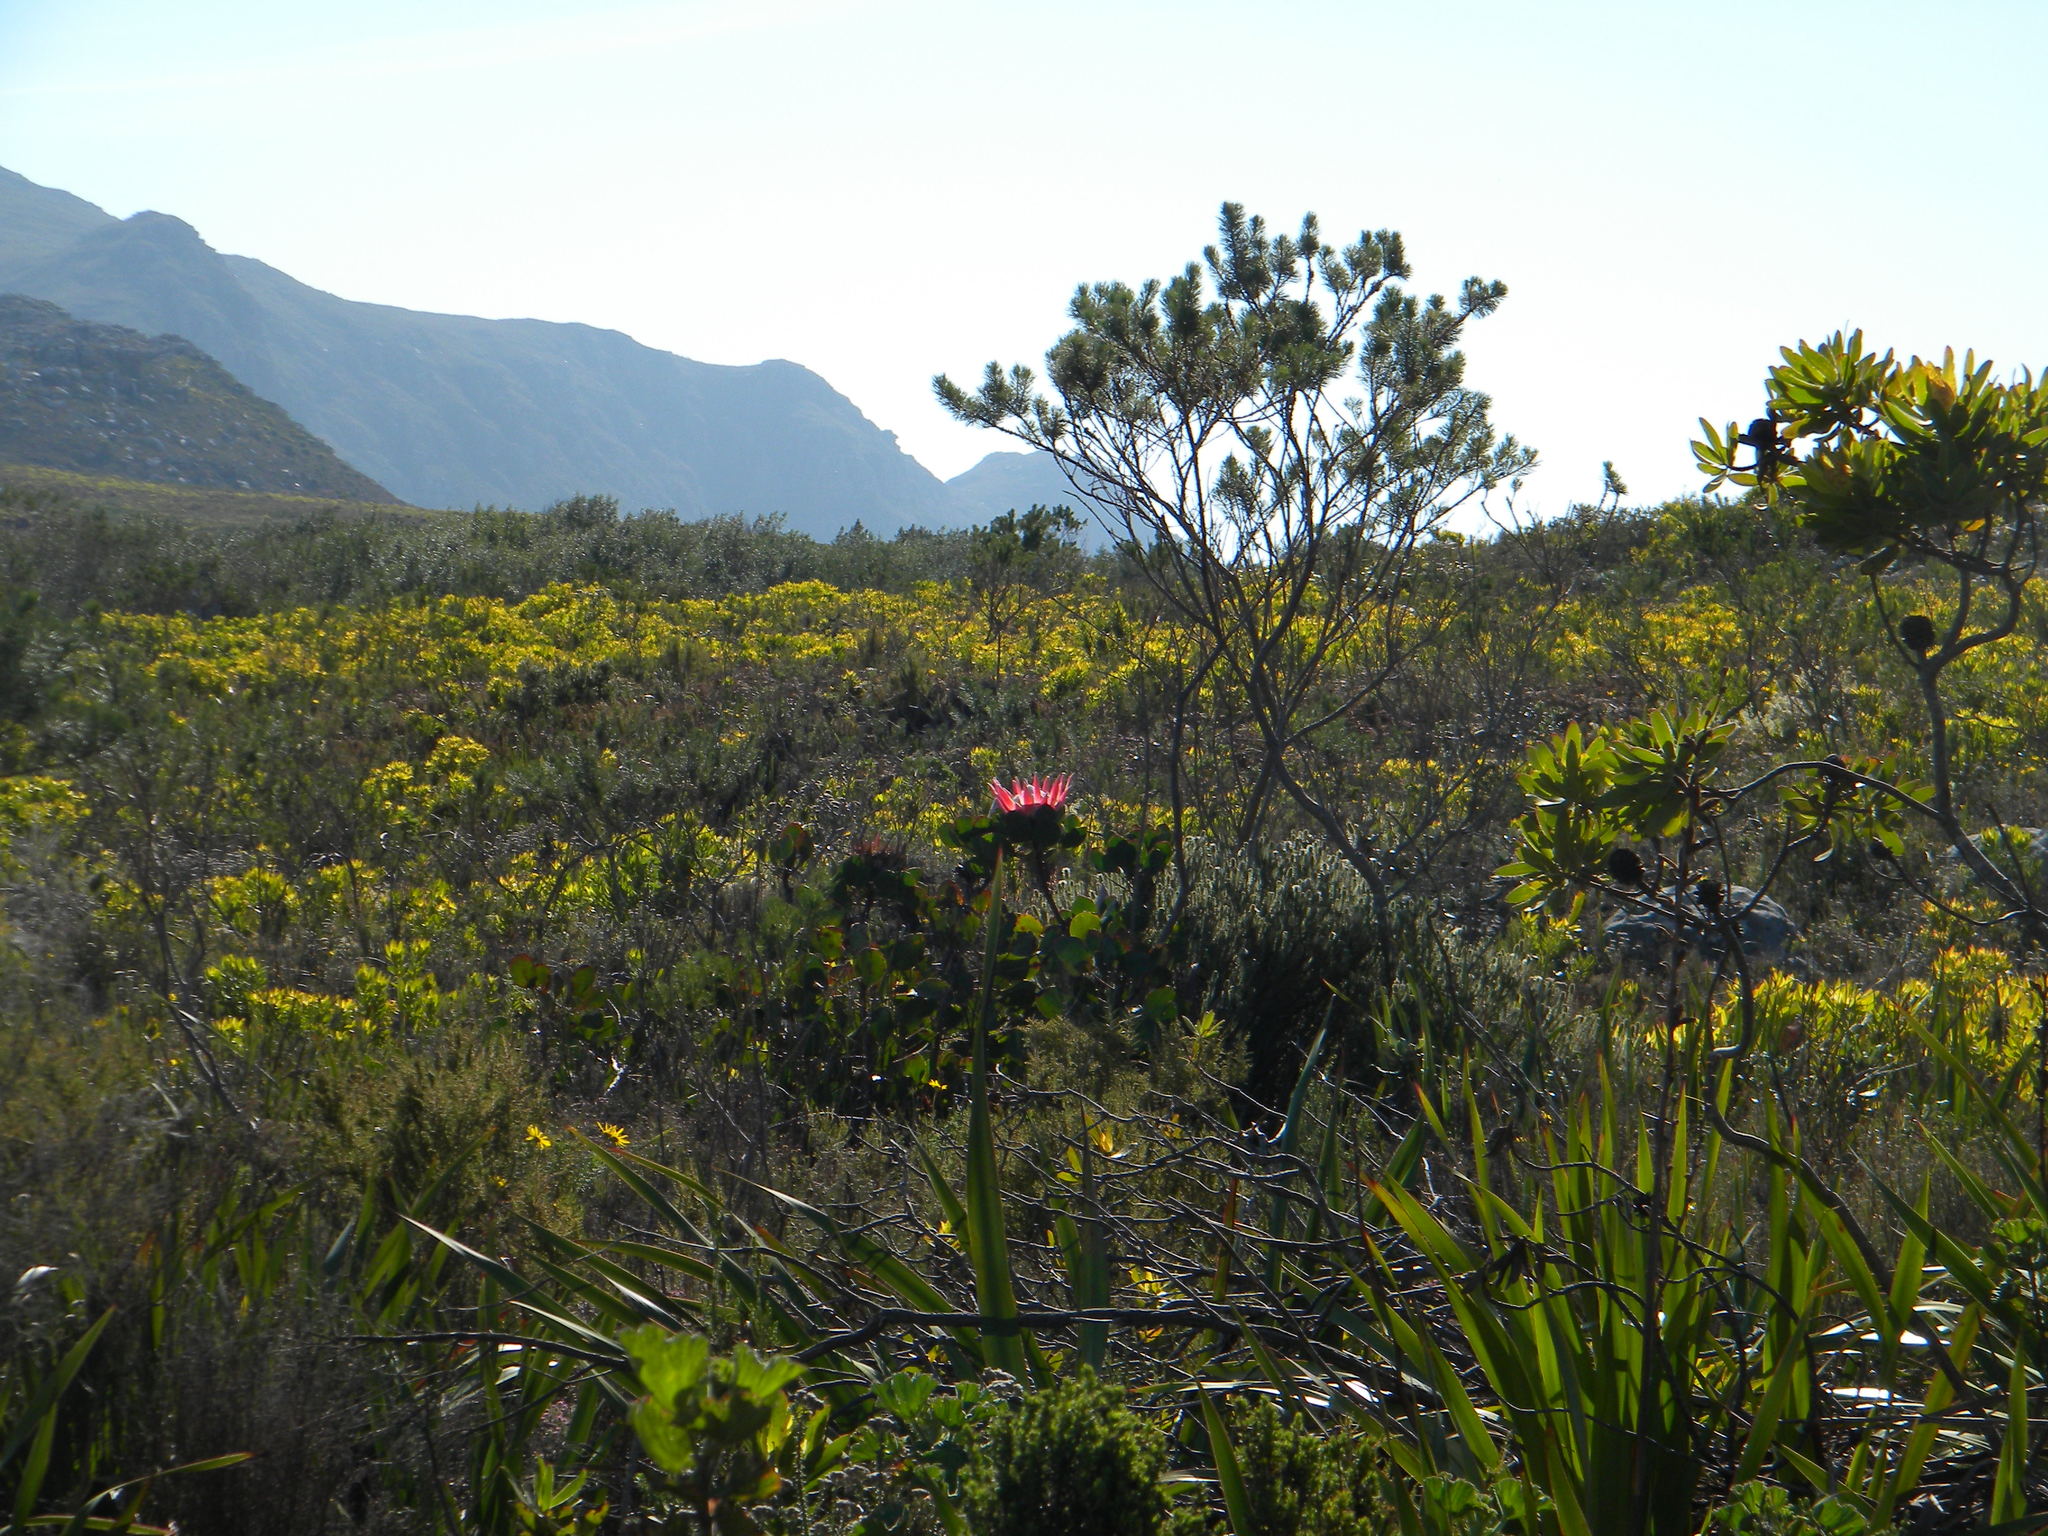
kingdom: Plantae
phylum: Tracheophyta
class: Magnoliopsida
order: Proteales
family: Proteaceae
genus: Protea
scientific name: Protea cynaroides
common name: King protea
